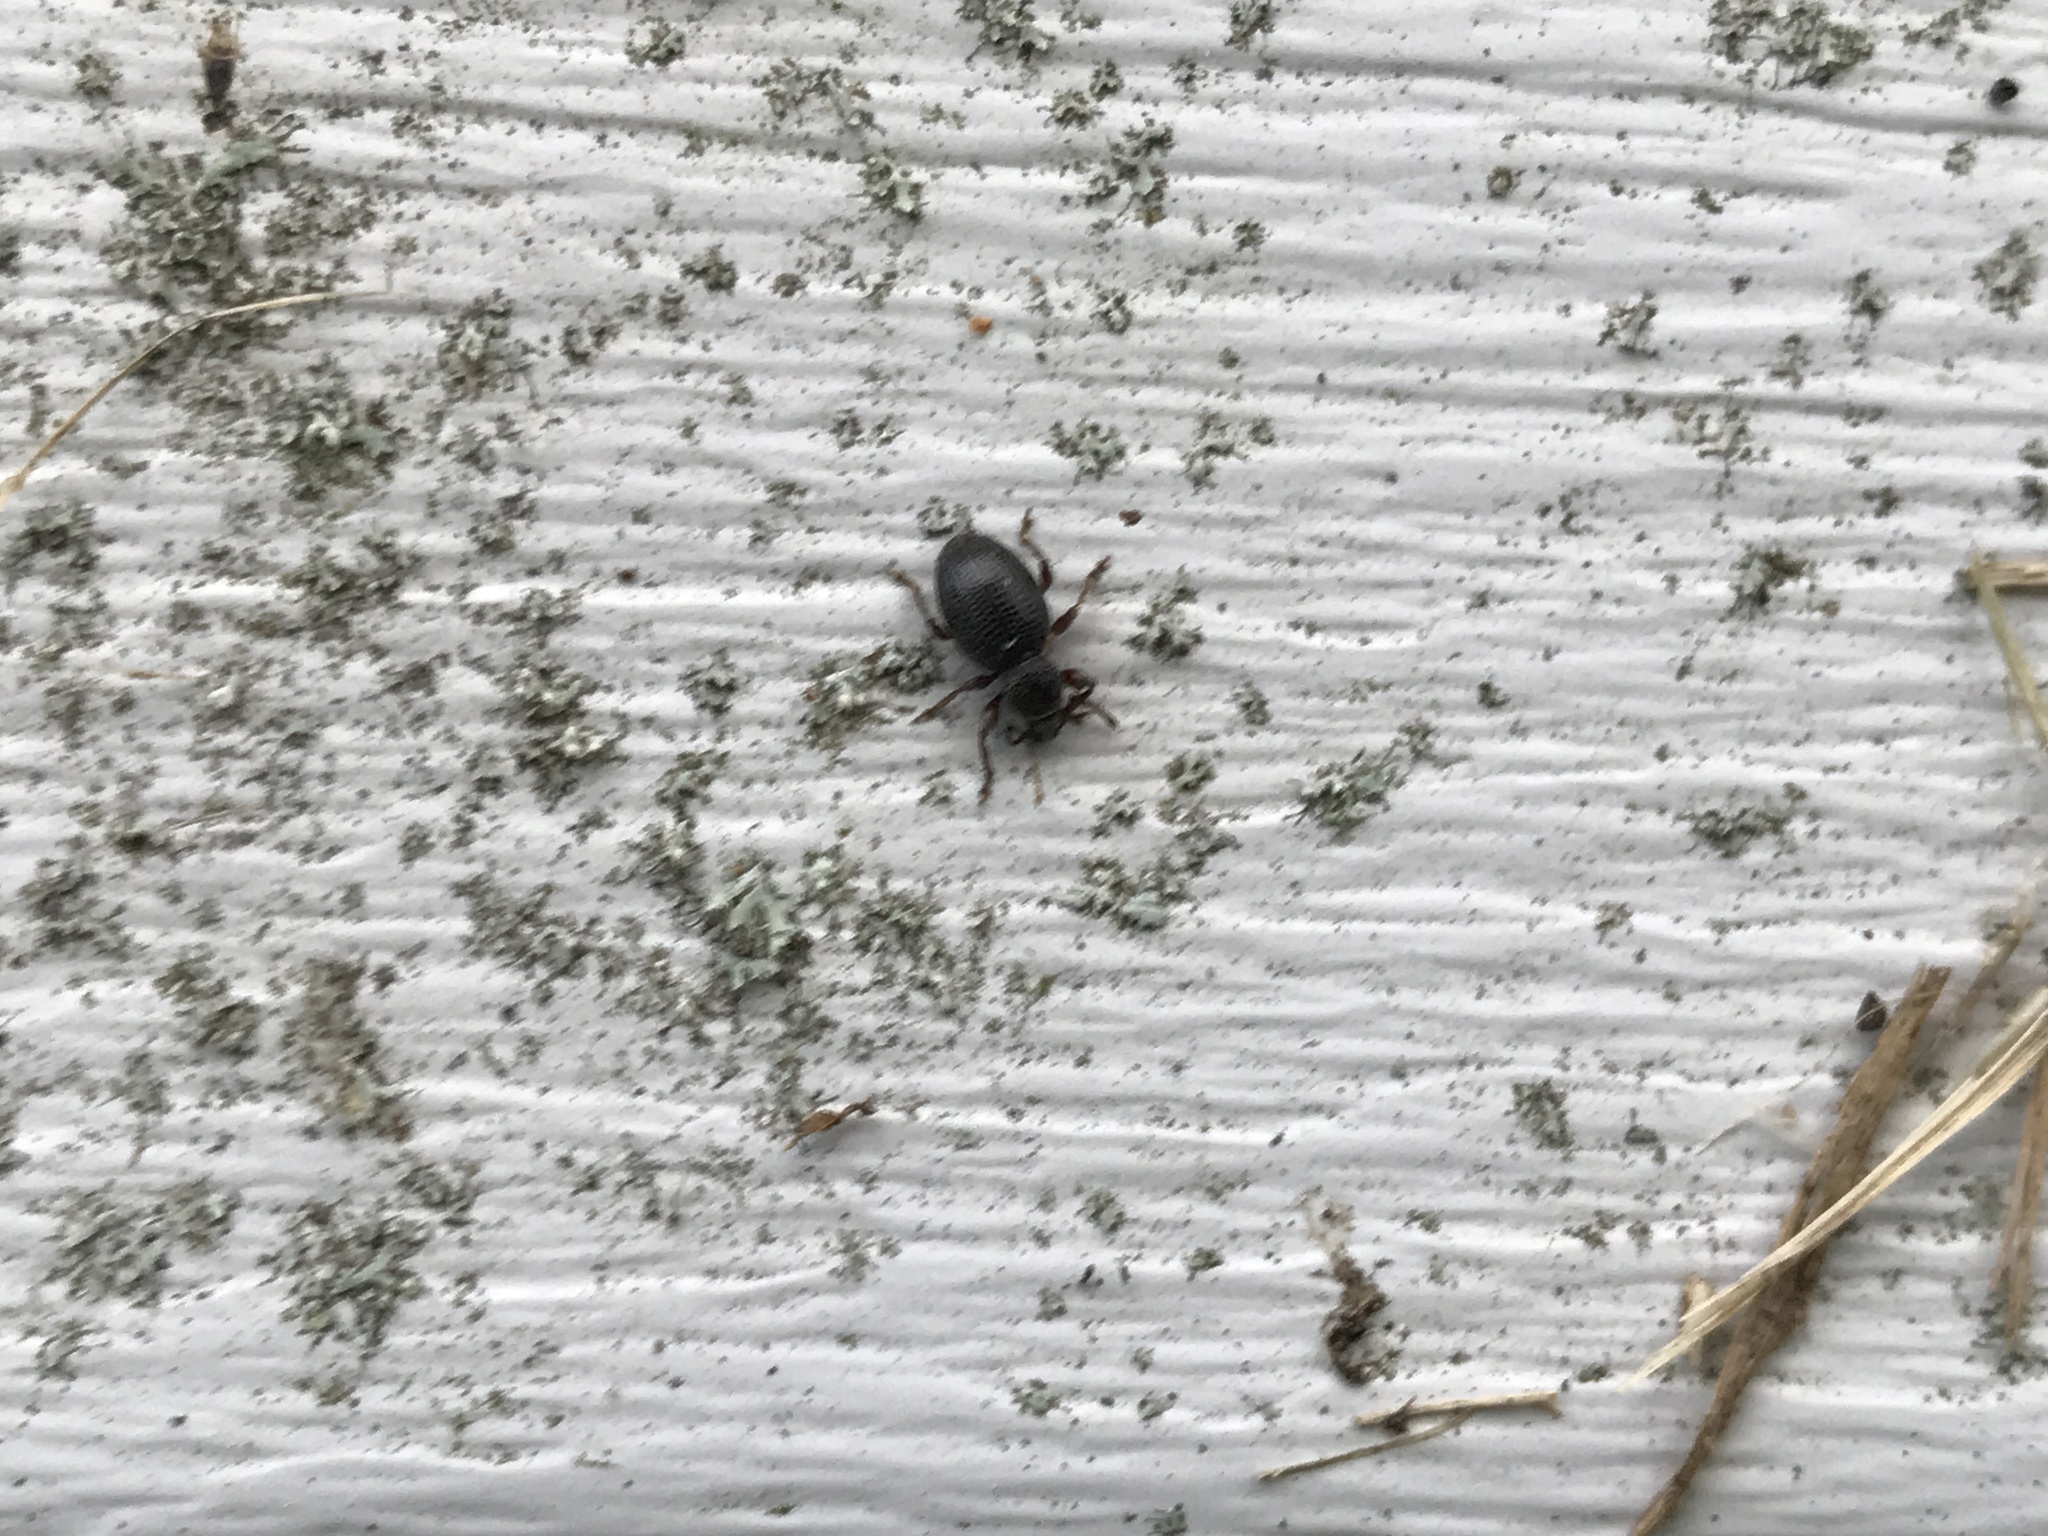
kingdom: Animalia
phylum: Arthropoda
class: Insecta
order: Coleoptera
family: Curculionidae
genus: Otiorhynchus
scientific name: Otiorhynchus ovatus
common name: Strawberry root weevil
